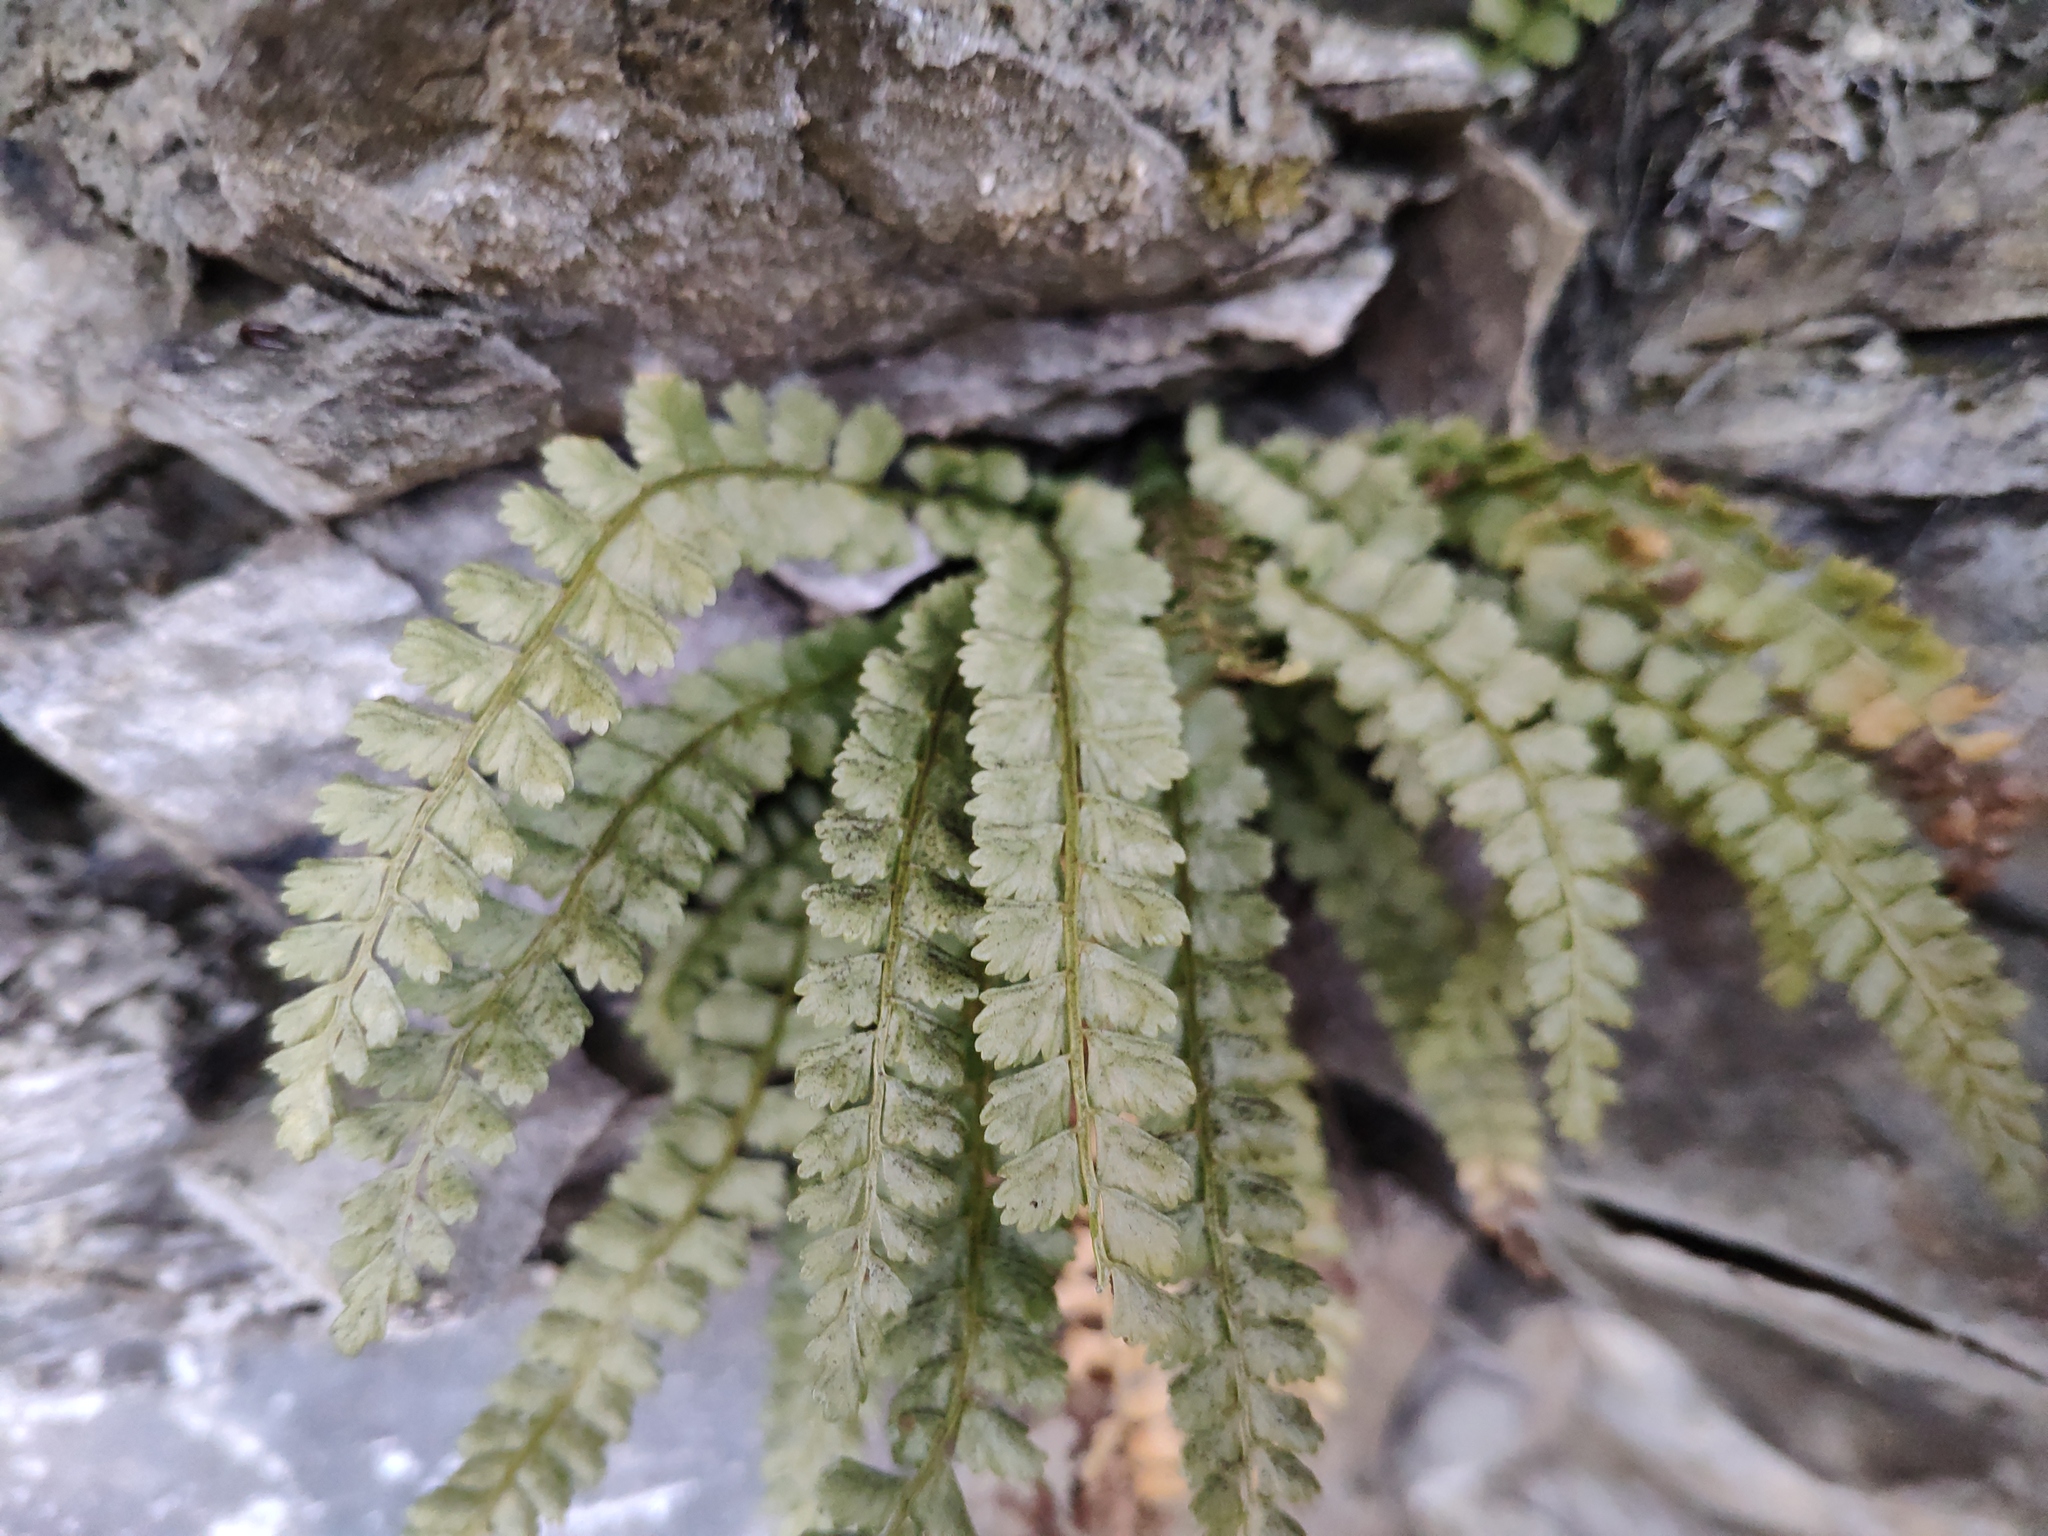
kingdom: Plantae
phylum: Tracheophyta
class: Polypodiopsida
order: Polypodiales
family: Aspleniaceae
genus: Asplenium
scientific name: Asplenium viride
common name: Green spleenwort
